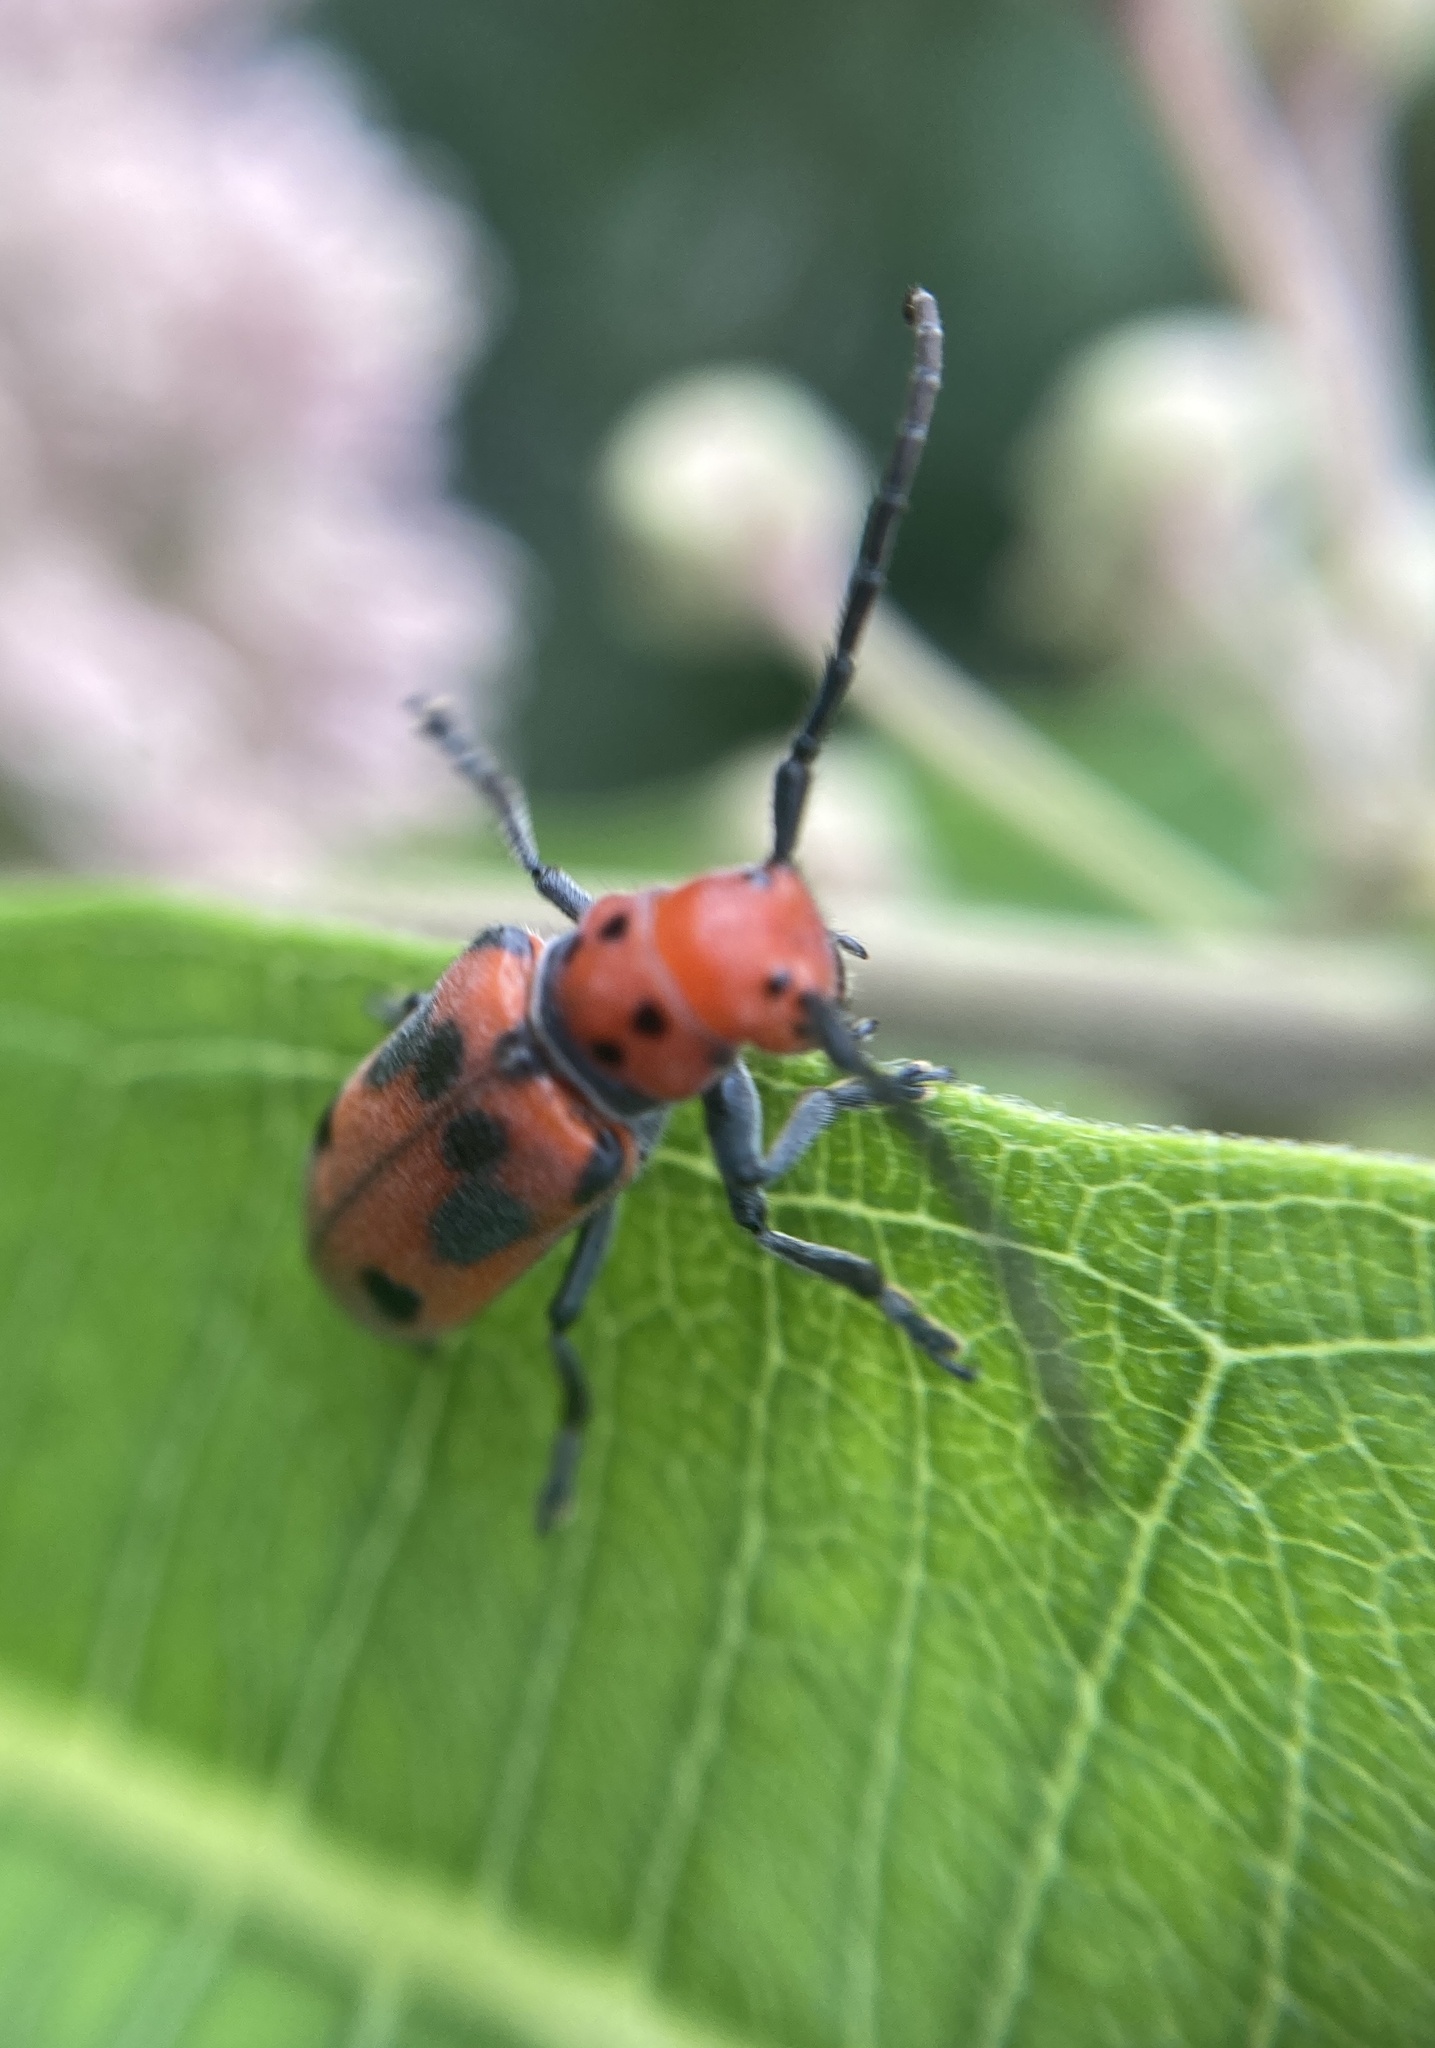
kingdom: Animalia
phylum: Arthropoda
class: Insecta
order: Coleoptera
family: Cerambycidae
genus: Tetraopes
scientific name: Tetraopes tetrophthalmus
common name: Red milkweed beetle
